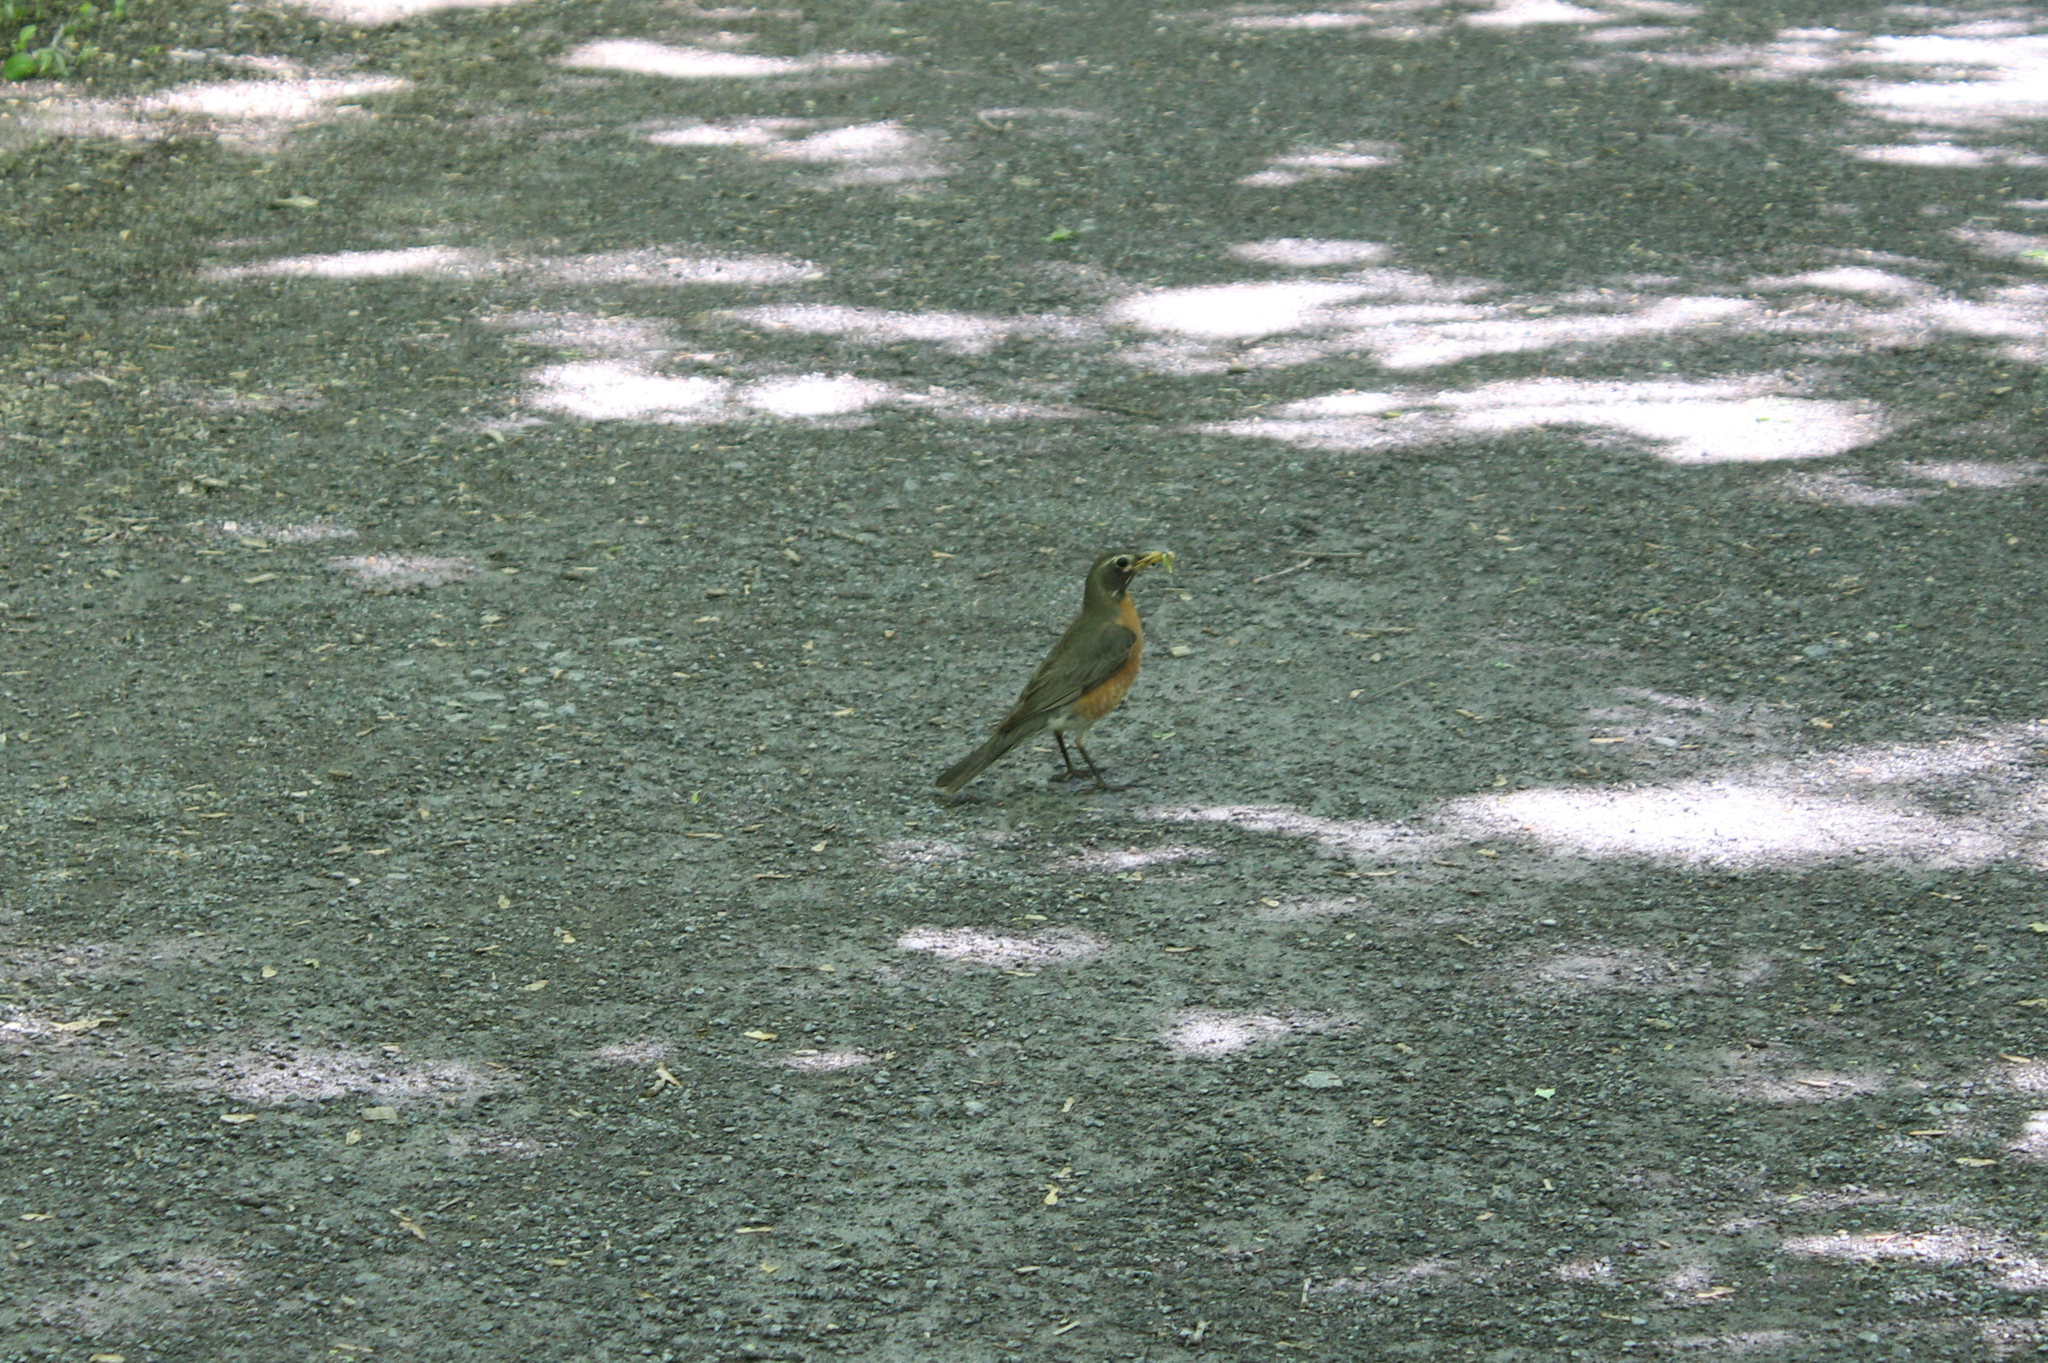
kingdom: Animalia
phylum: Chordata
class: Aves
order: Passeriformes
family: Turdidae
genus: Turdus
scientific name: Turdus migratorius
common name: American robin
